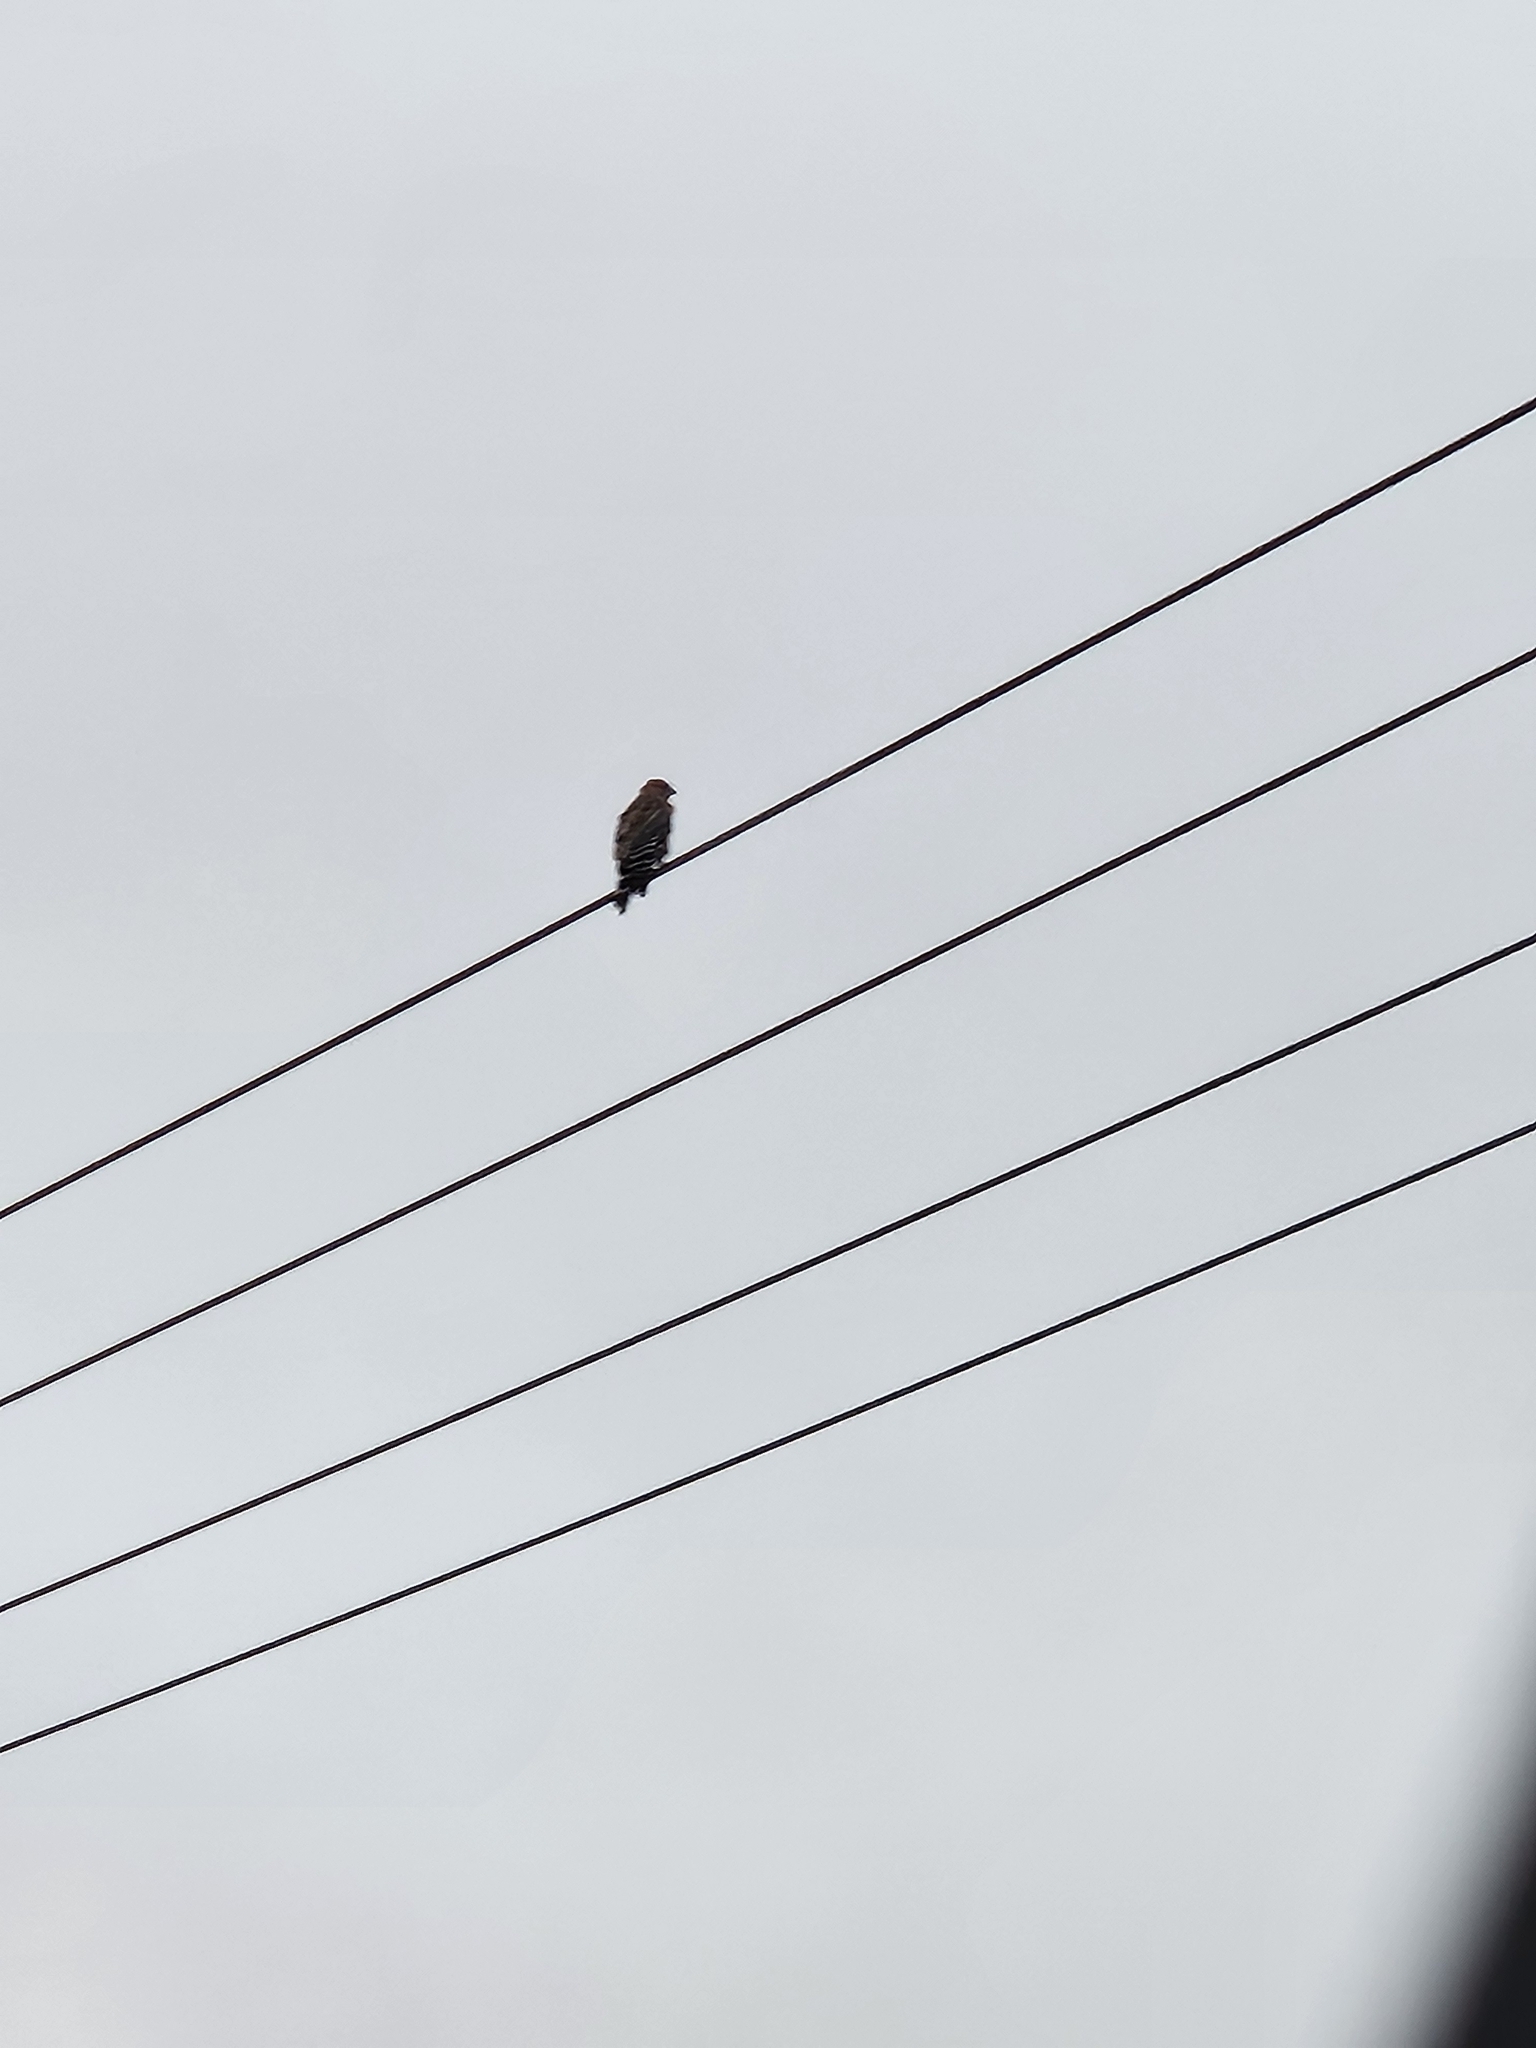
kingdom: Animalia
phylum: Chordata
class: Aves
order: Accipitriformes
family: Accipitridae
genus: Buteo
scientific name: Buteo lineatus
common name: Red-shouldered hawk
